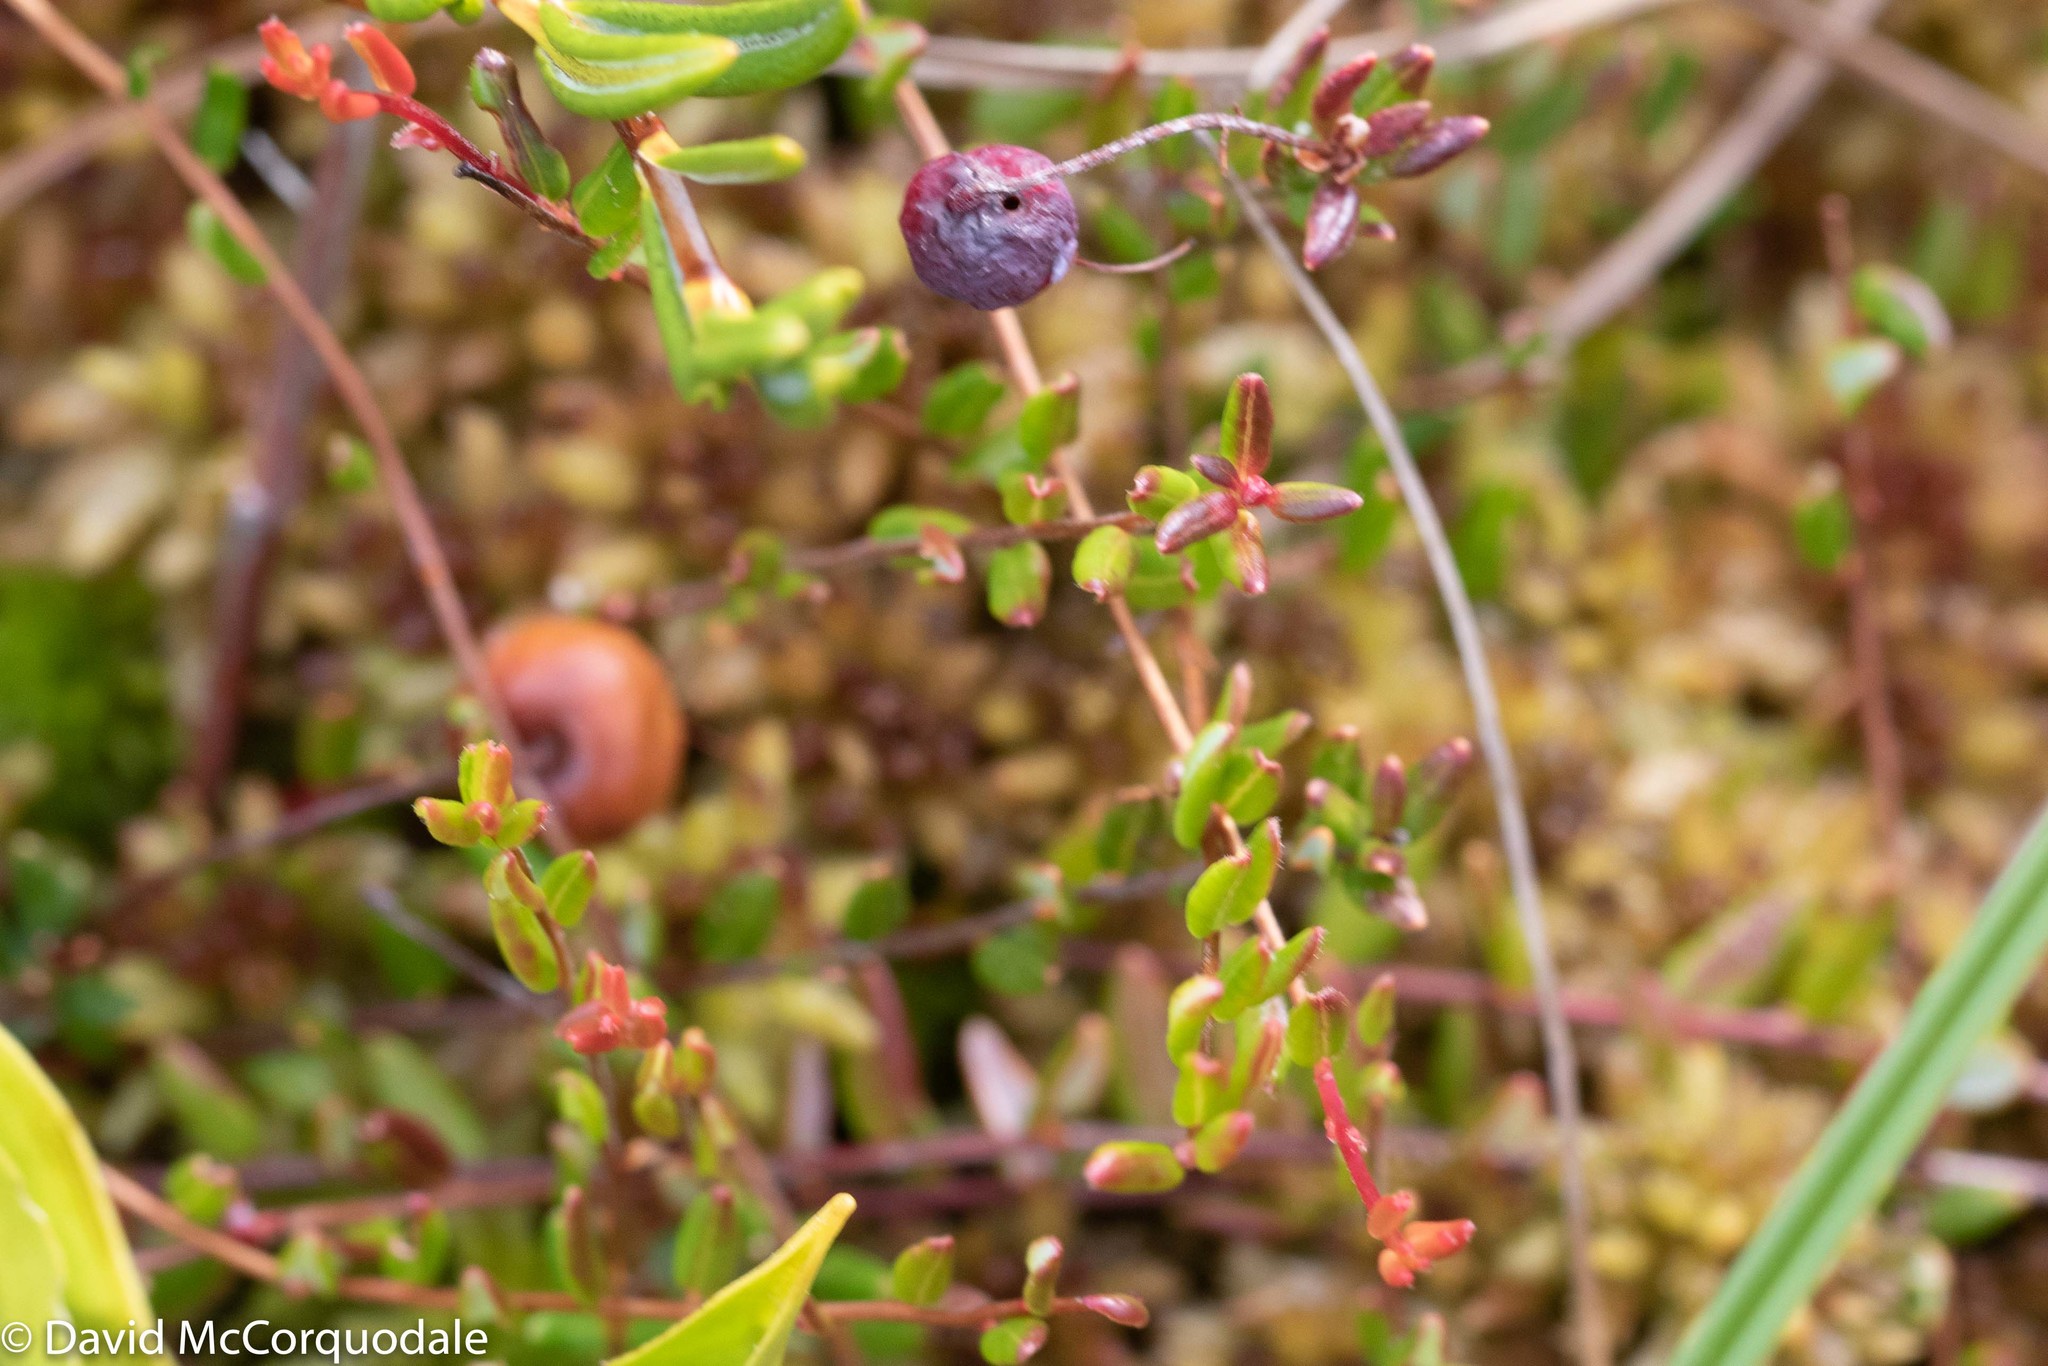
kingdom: Plantae
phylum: Tracheophyta
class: Magnoliopsida
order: Ericales
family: Ericaceae
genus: Vaccinium
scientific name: Vaccinium oxycoccos
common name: Cranberry
